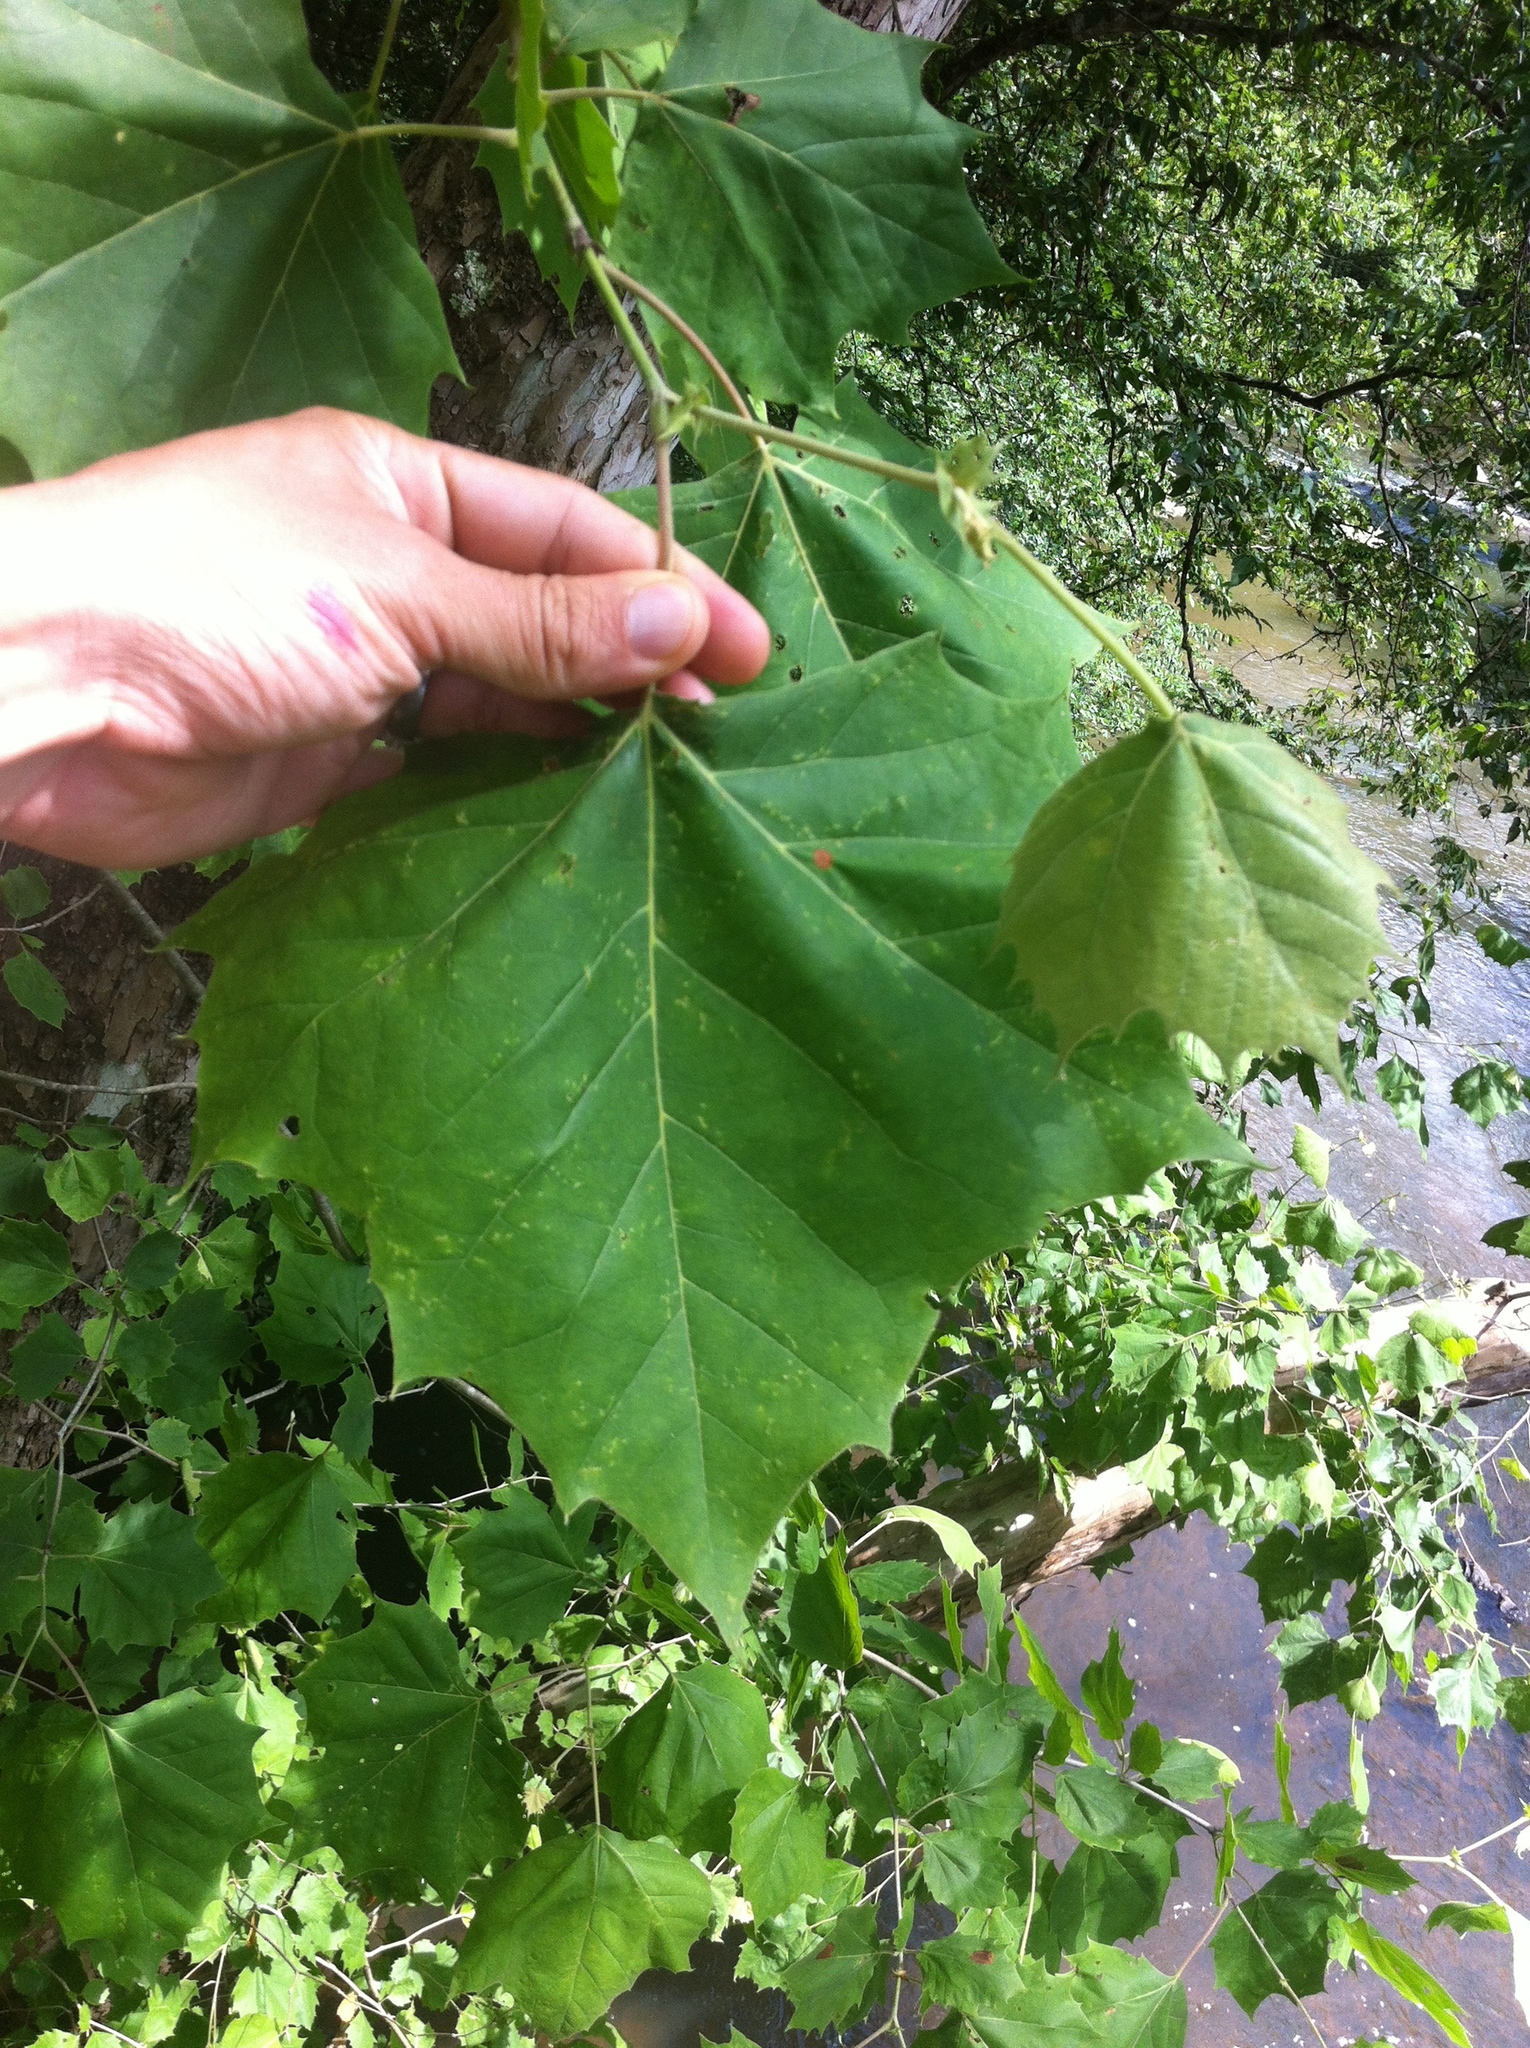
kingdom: Plantae
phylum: Tracheophyta
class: Magnoliopsida
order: Proteales
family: Platanaceae
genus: Platanus
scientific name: Platanus occidentalis
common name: American sycamore
